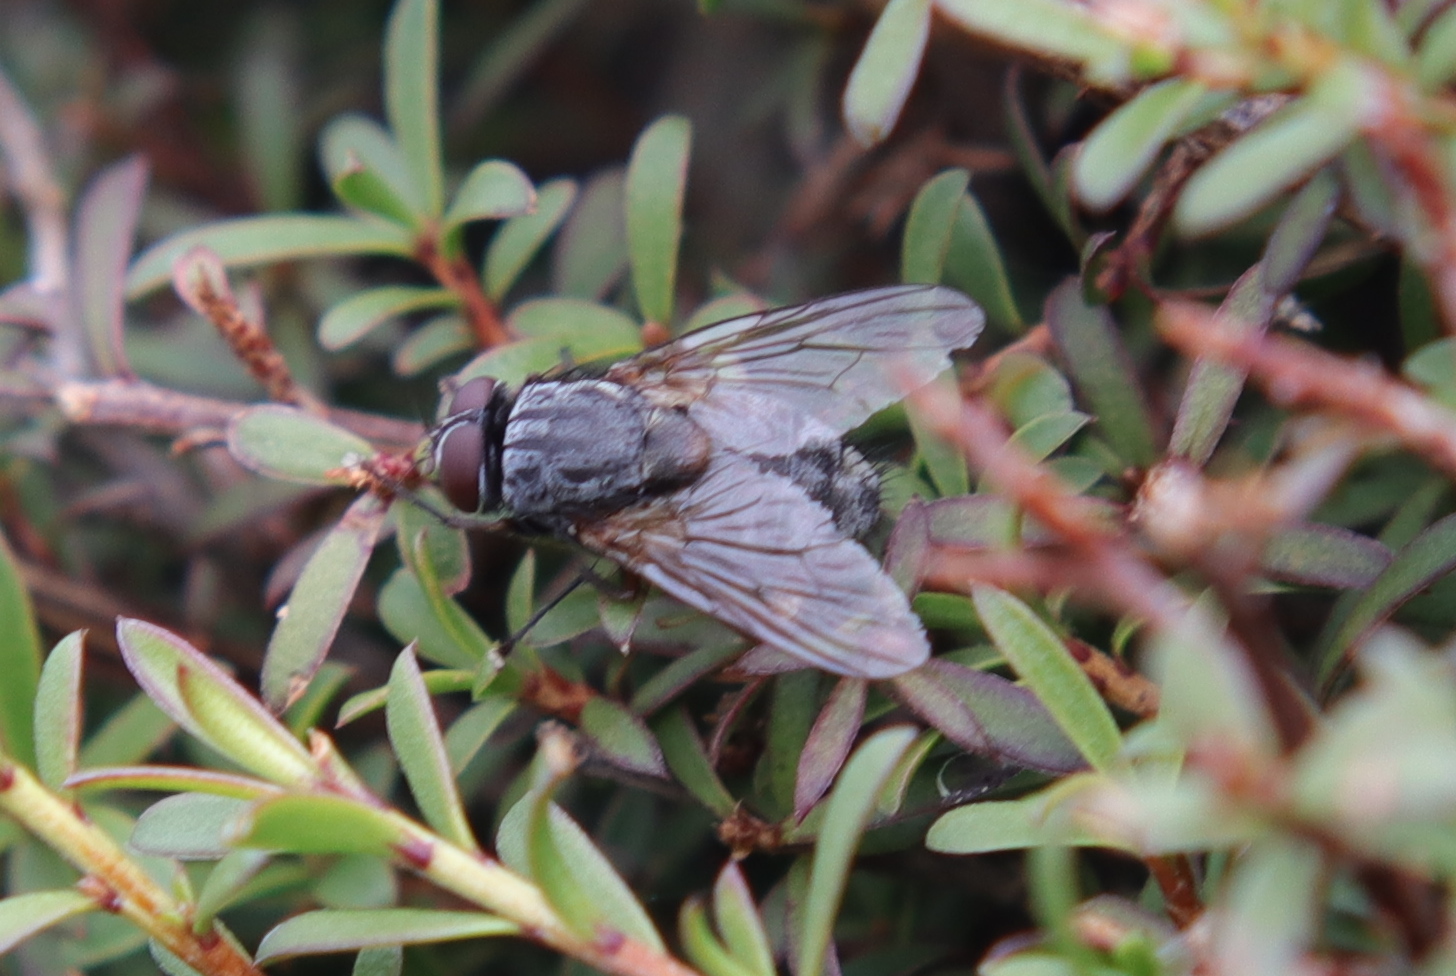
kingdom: Animalia
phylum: Arthropoda
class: Insecta
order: Diptera
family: Muscidae
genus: Muscina
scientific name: Muscina stabulans
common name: False stable fly
